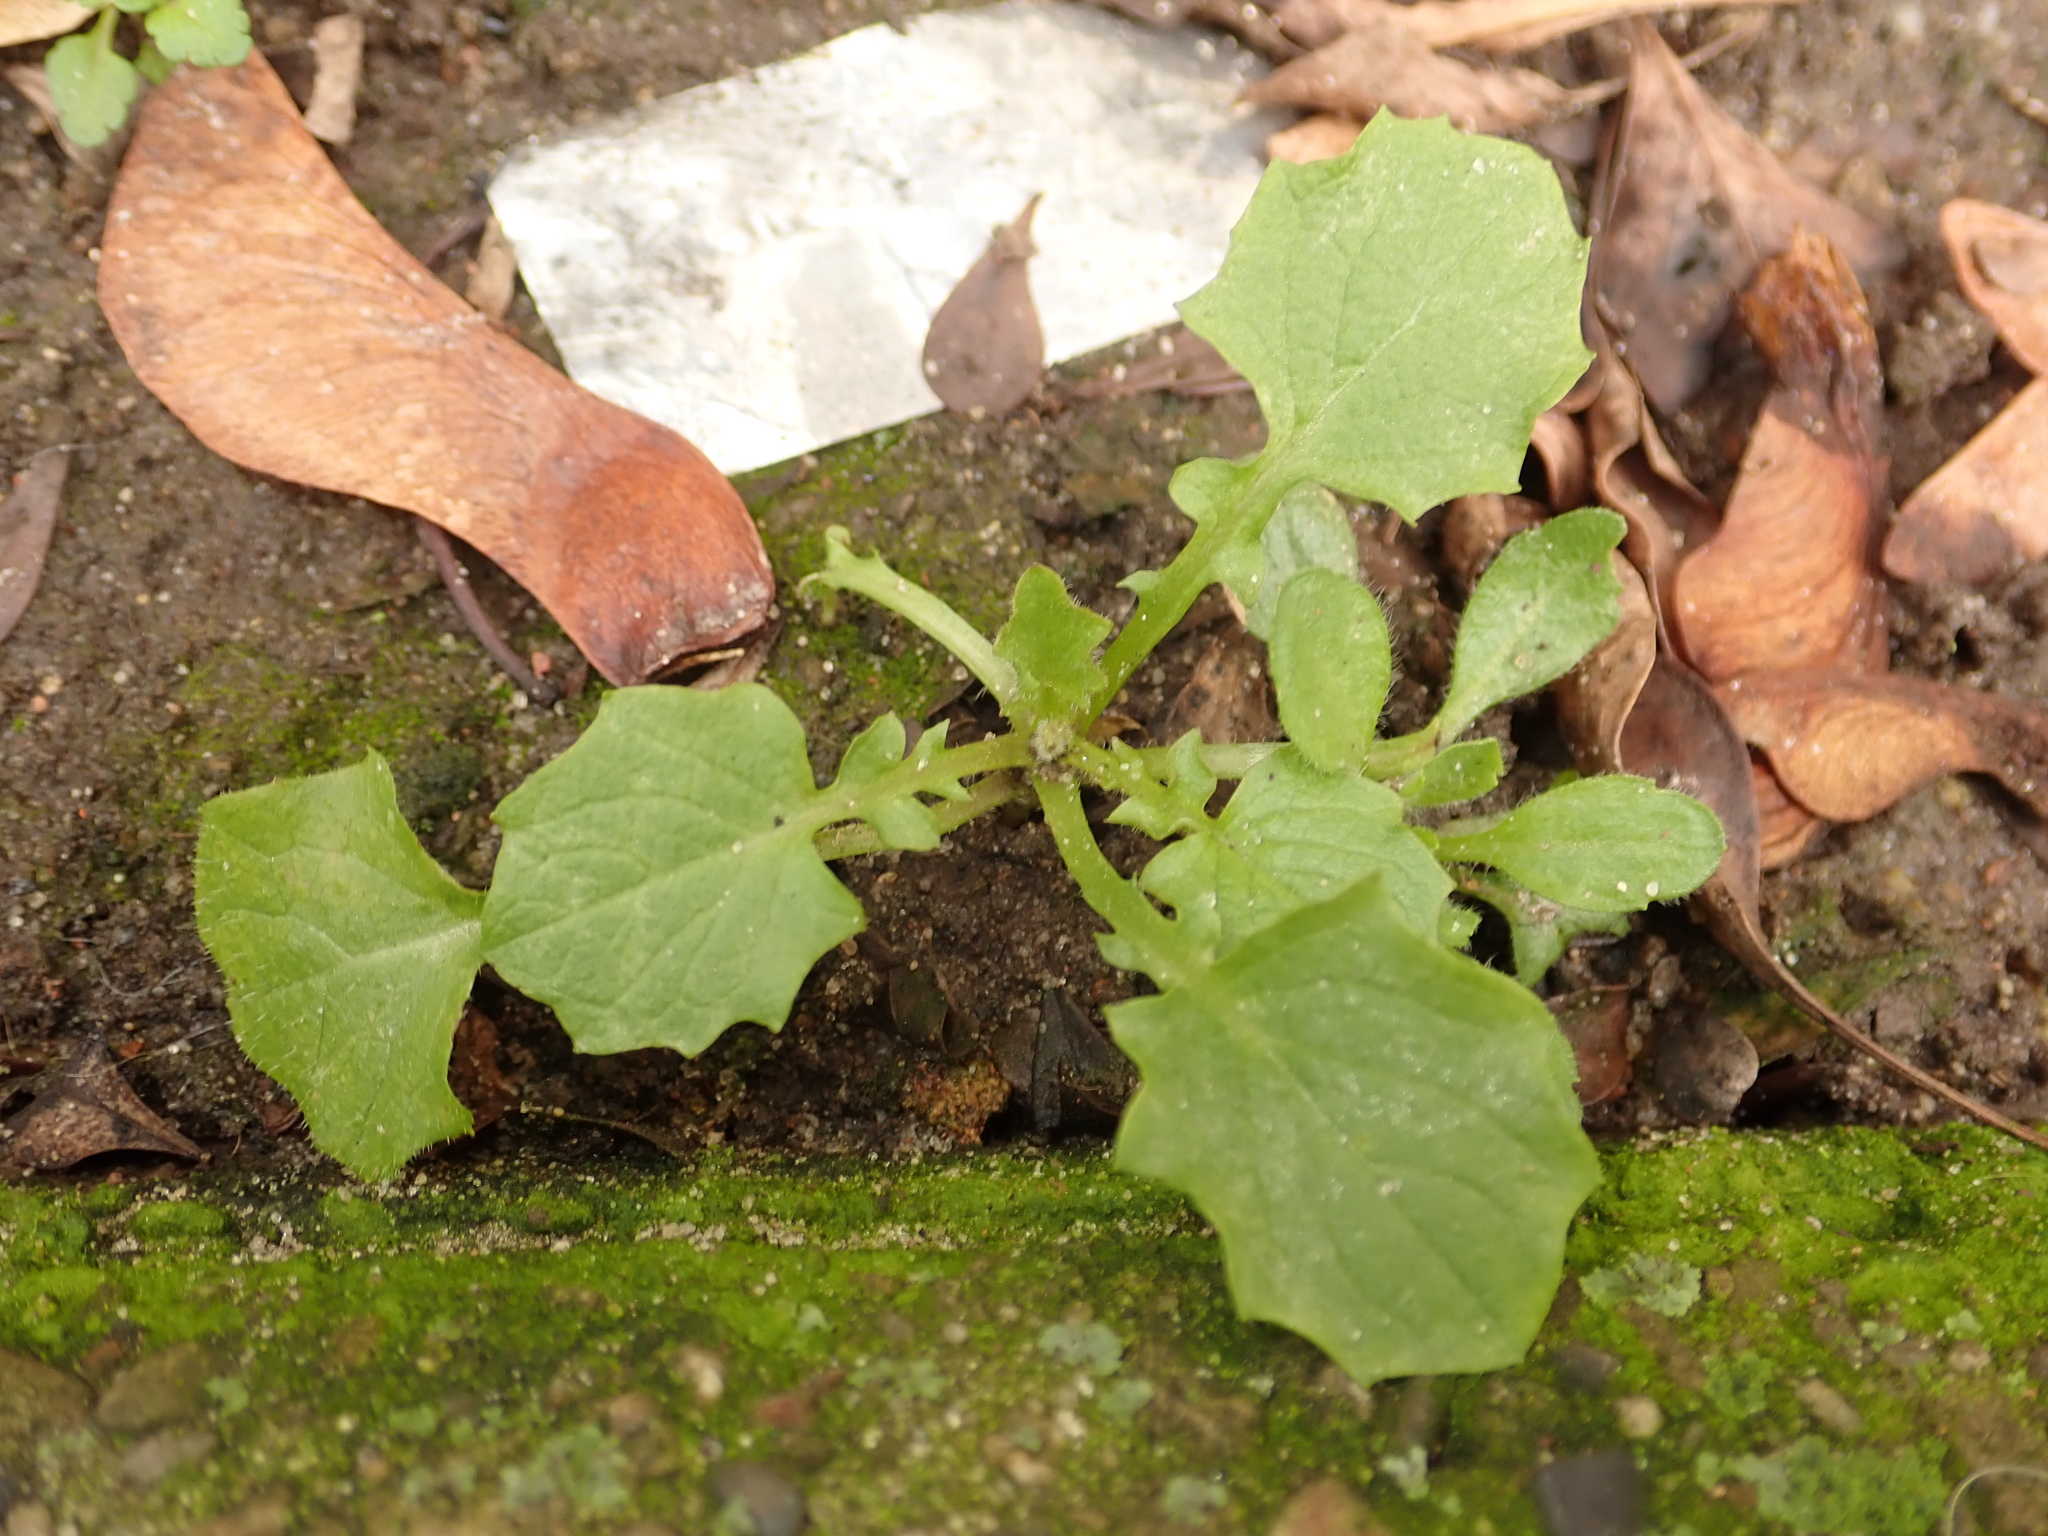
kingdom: Plantae
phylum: Tracheophyta
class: Magnoliopsida
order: Asterales
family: Asteraceae
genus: Lapsana
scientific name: Lapsana communis
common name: Nipplewort
